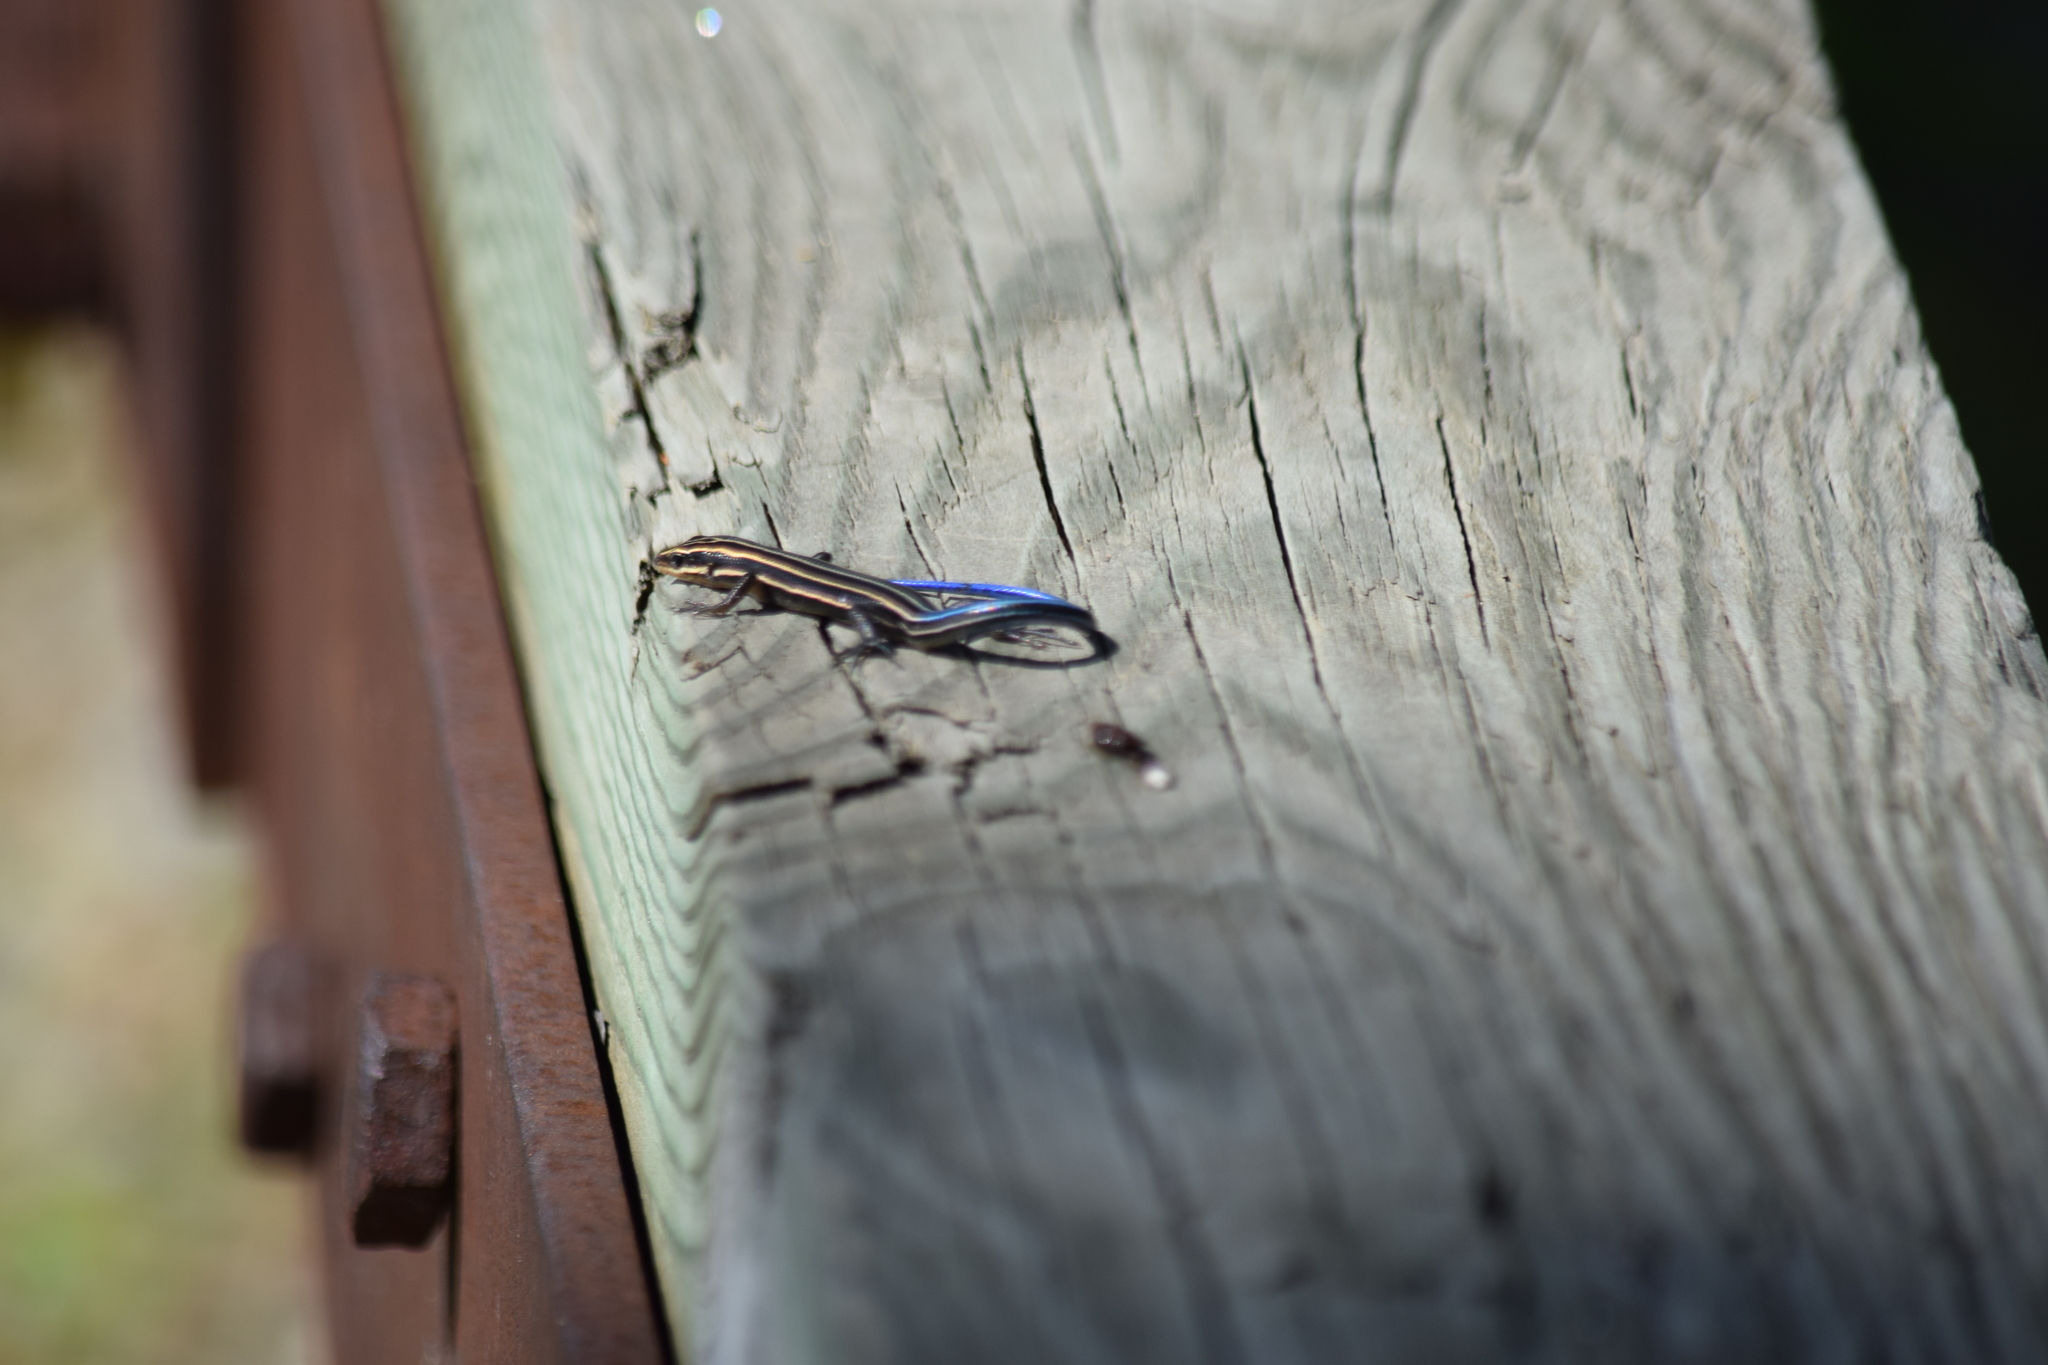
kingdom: Animalia
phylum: Chordata
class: Squamata
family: Scincidae
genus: Plestiodon
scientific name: Plestiodon fasciatus
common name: Five-lined skink
